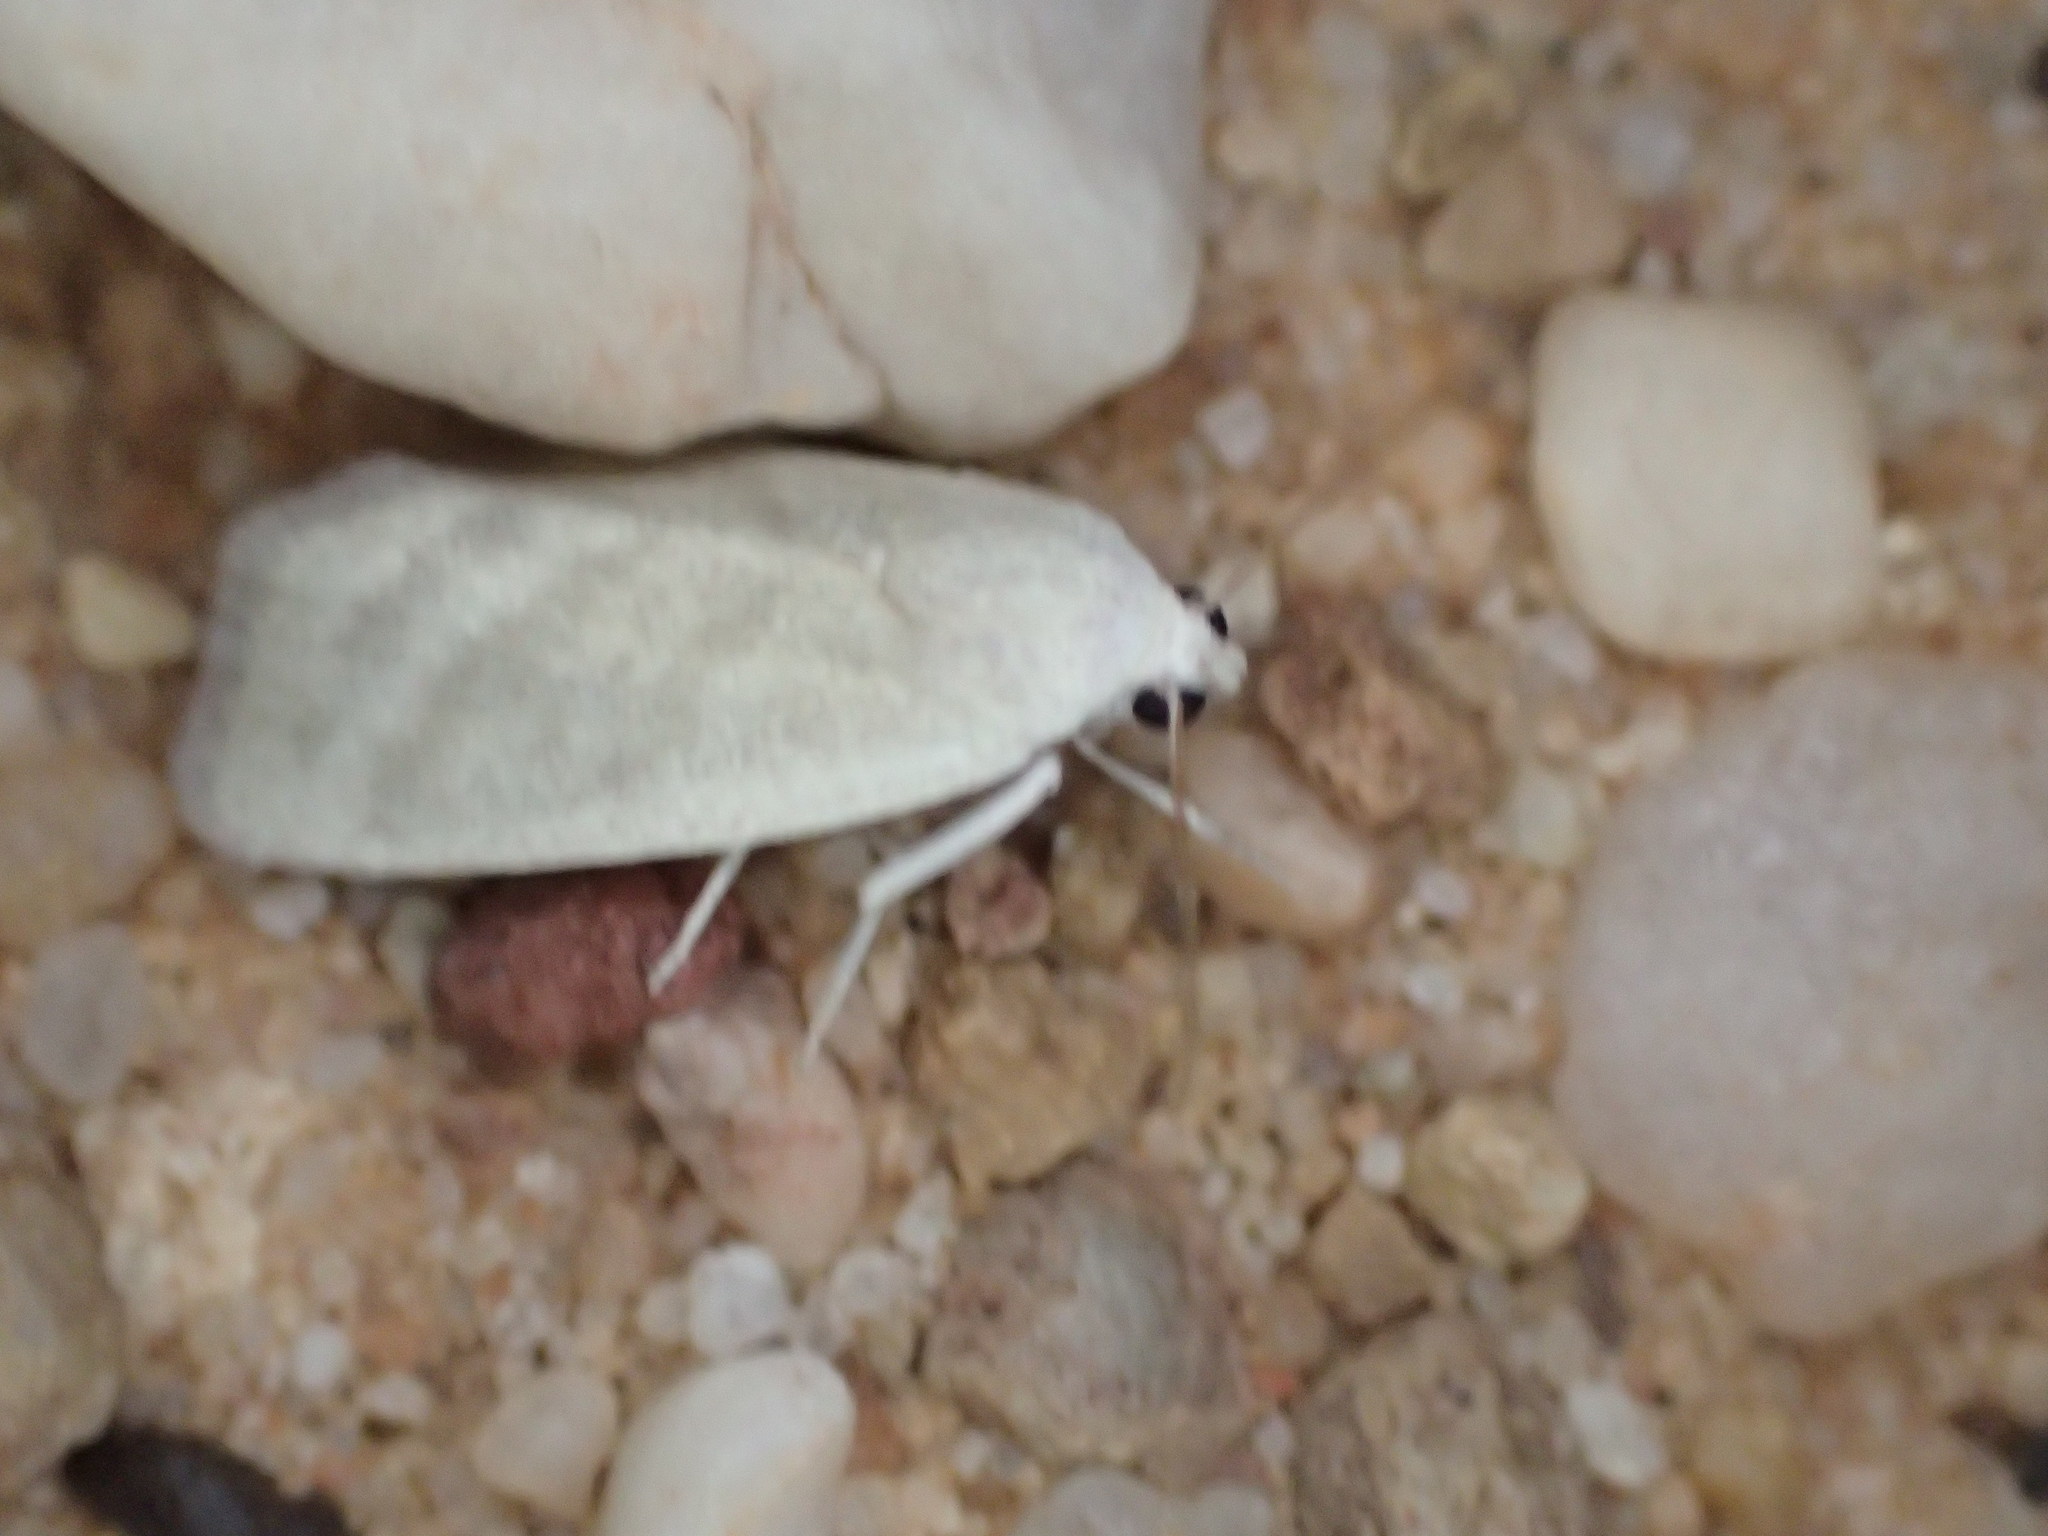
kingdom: Animalia
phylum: Arthropoda
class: Insecta
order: Lepidoptera
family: Nolidae
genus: Earias
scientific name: Earias paralella
